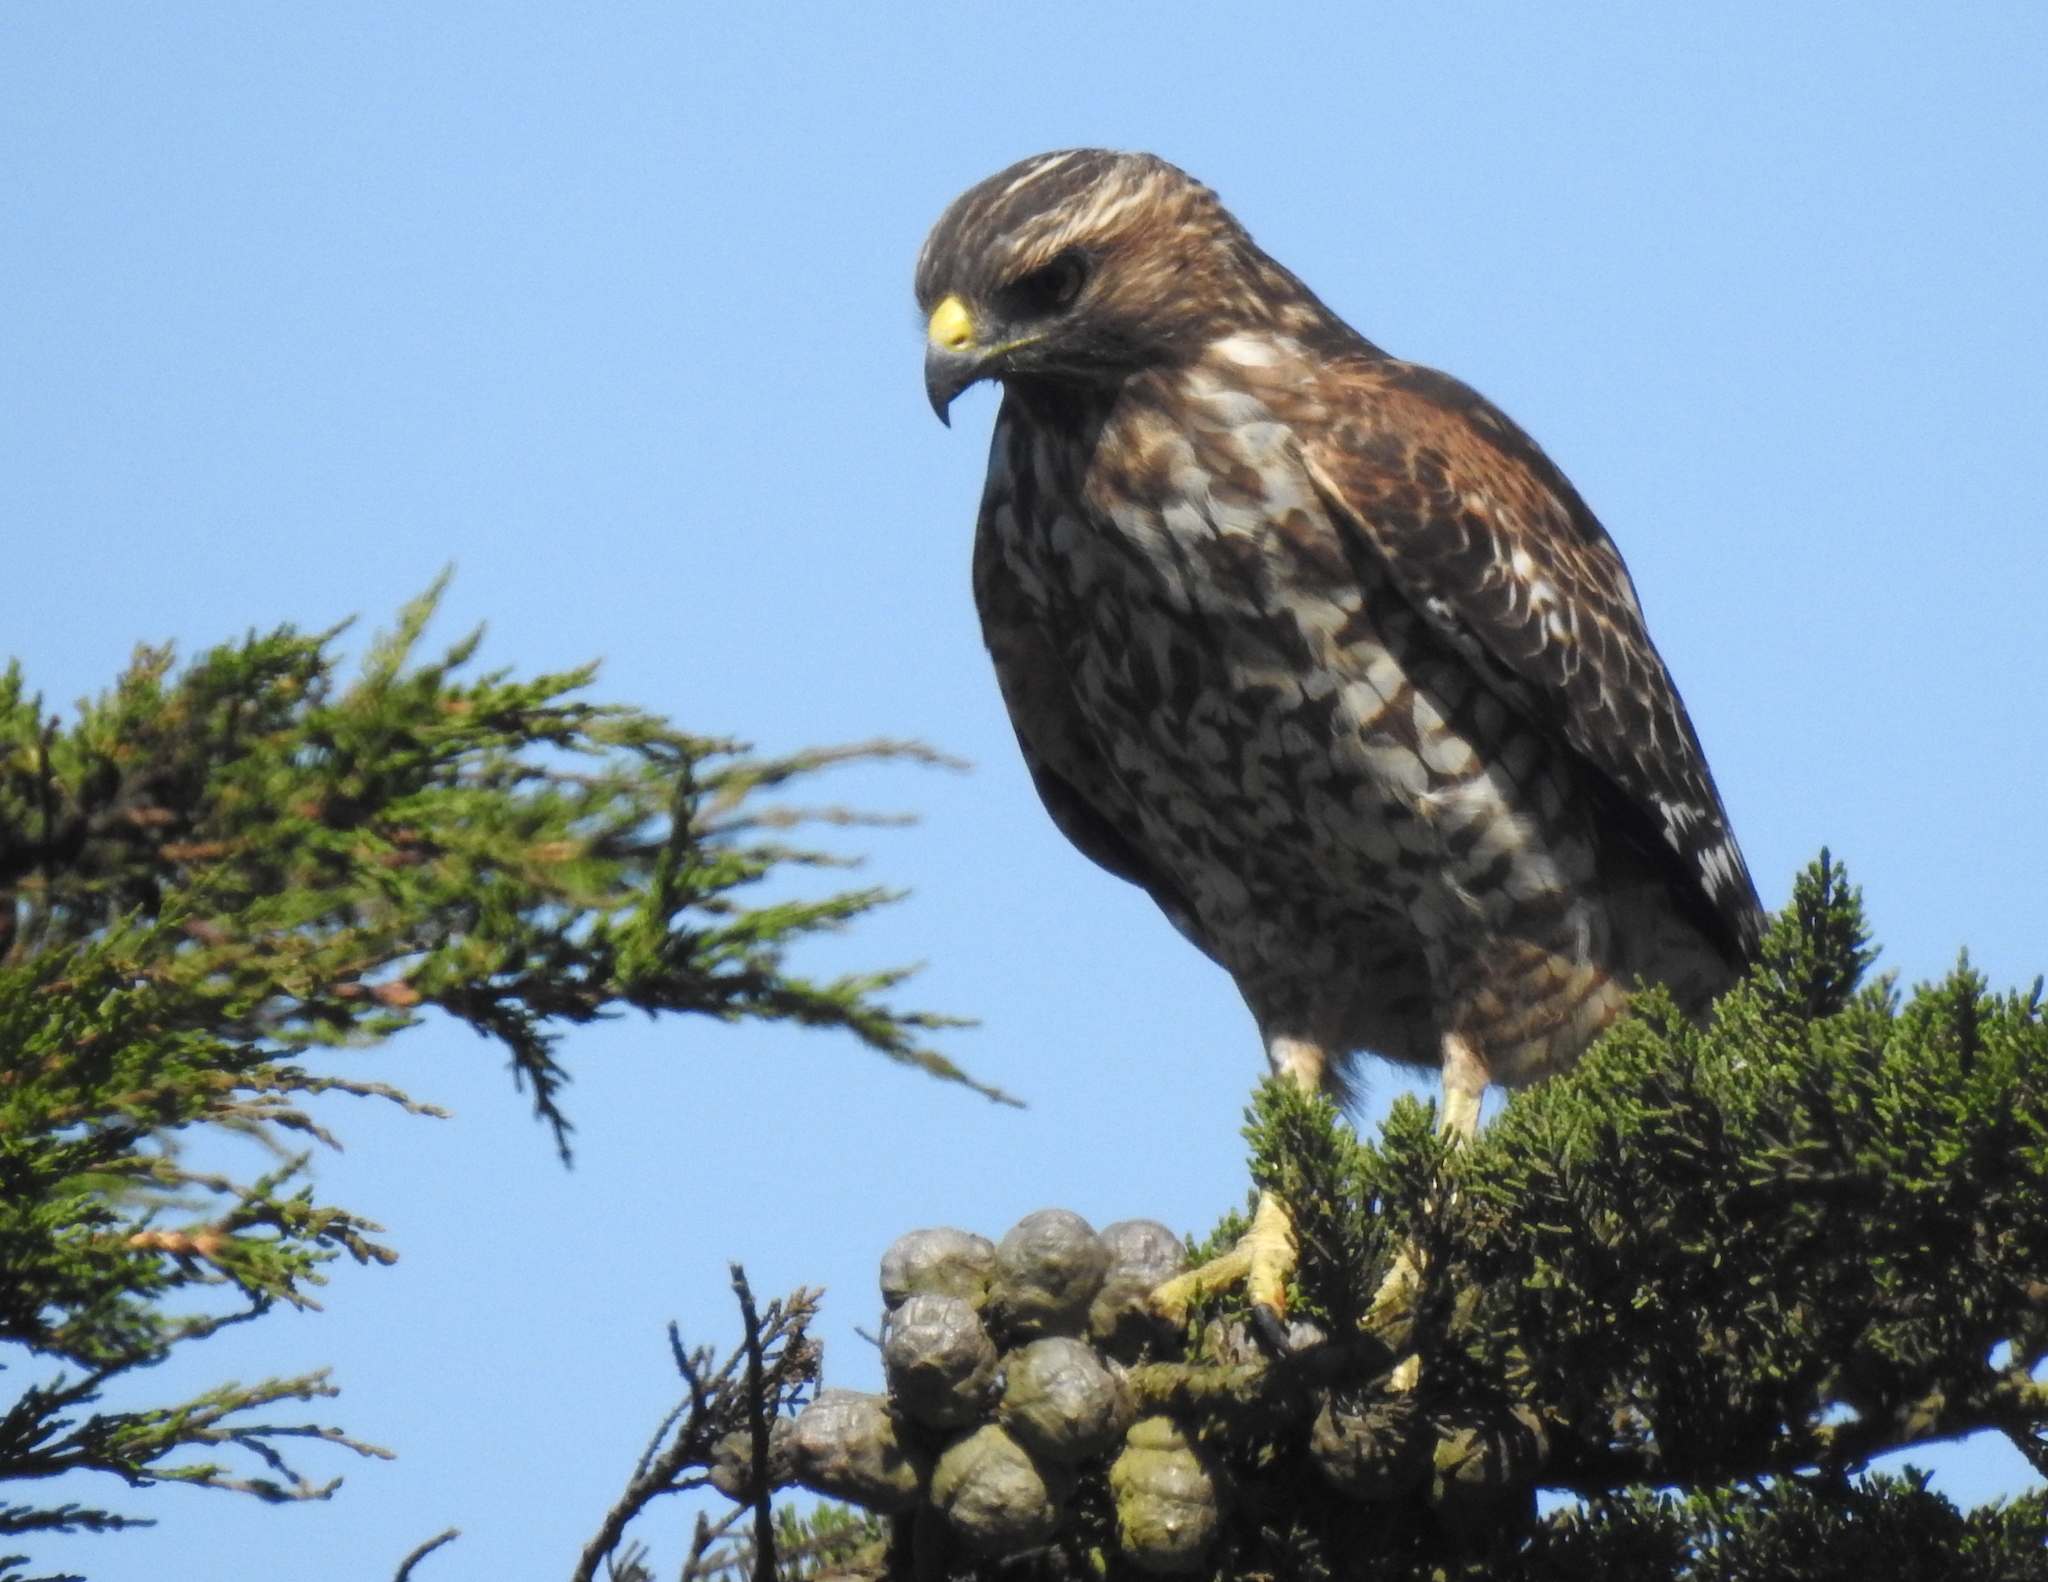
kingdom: Animalia
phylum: Chordata
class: Aves
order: Accipitriformes
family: Accipitridae
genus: Buteo
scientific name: Buteo lineatus
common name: Red-shouldered hawk
